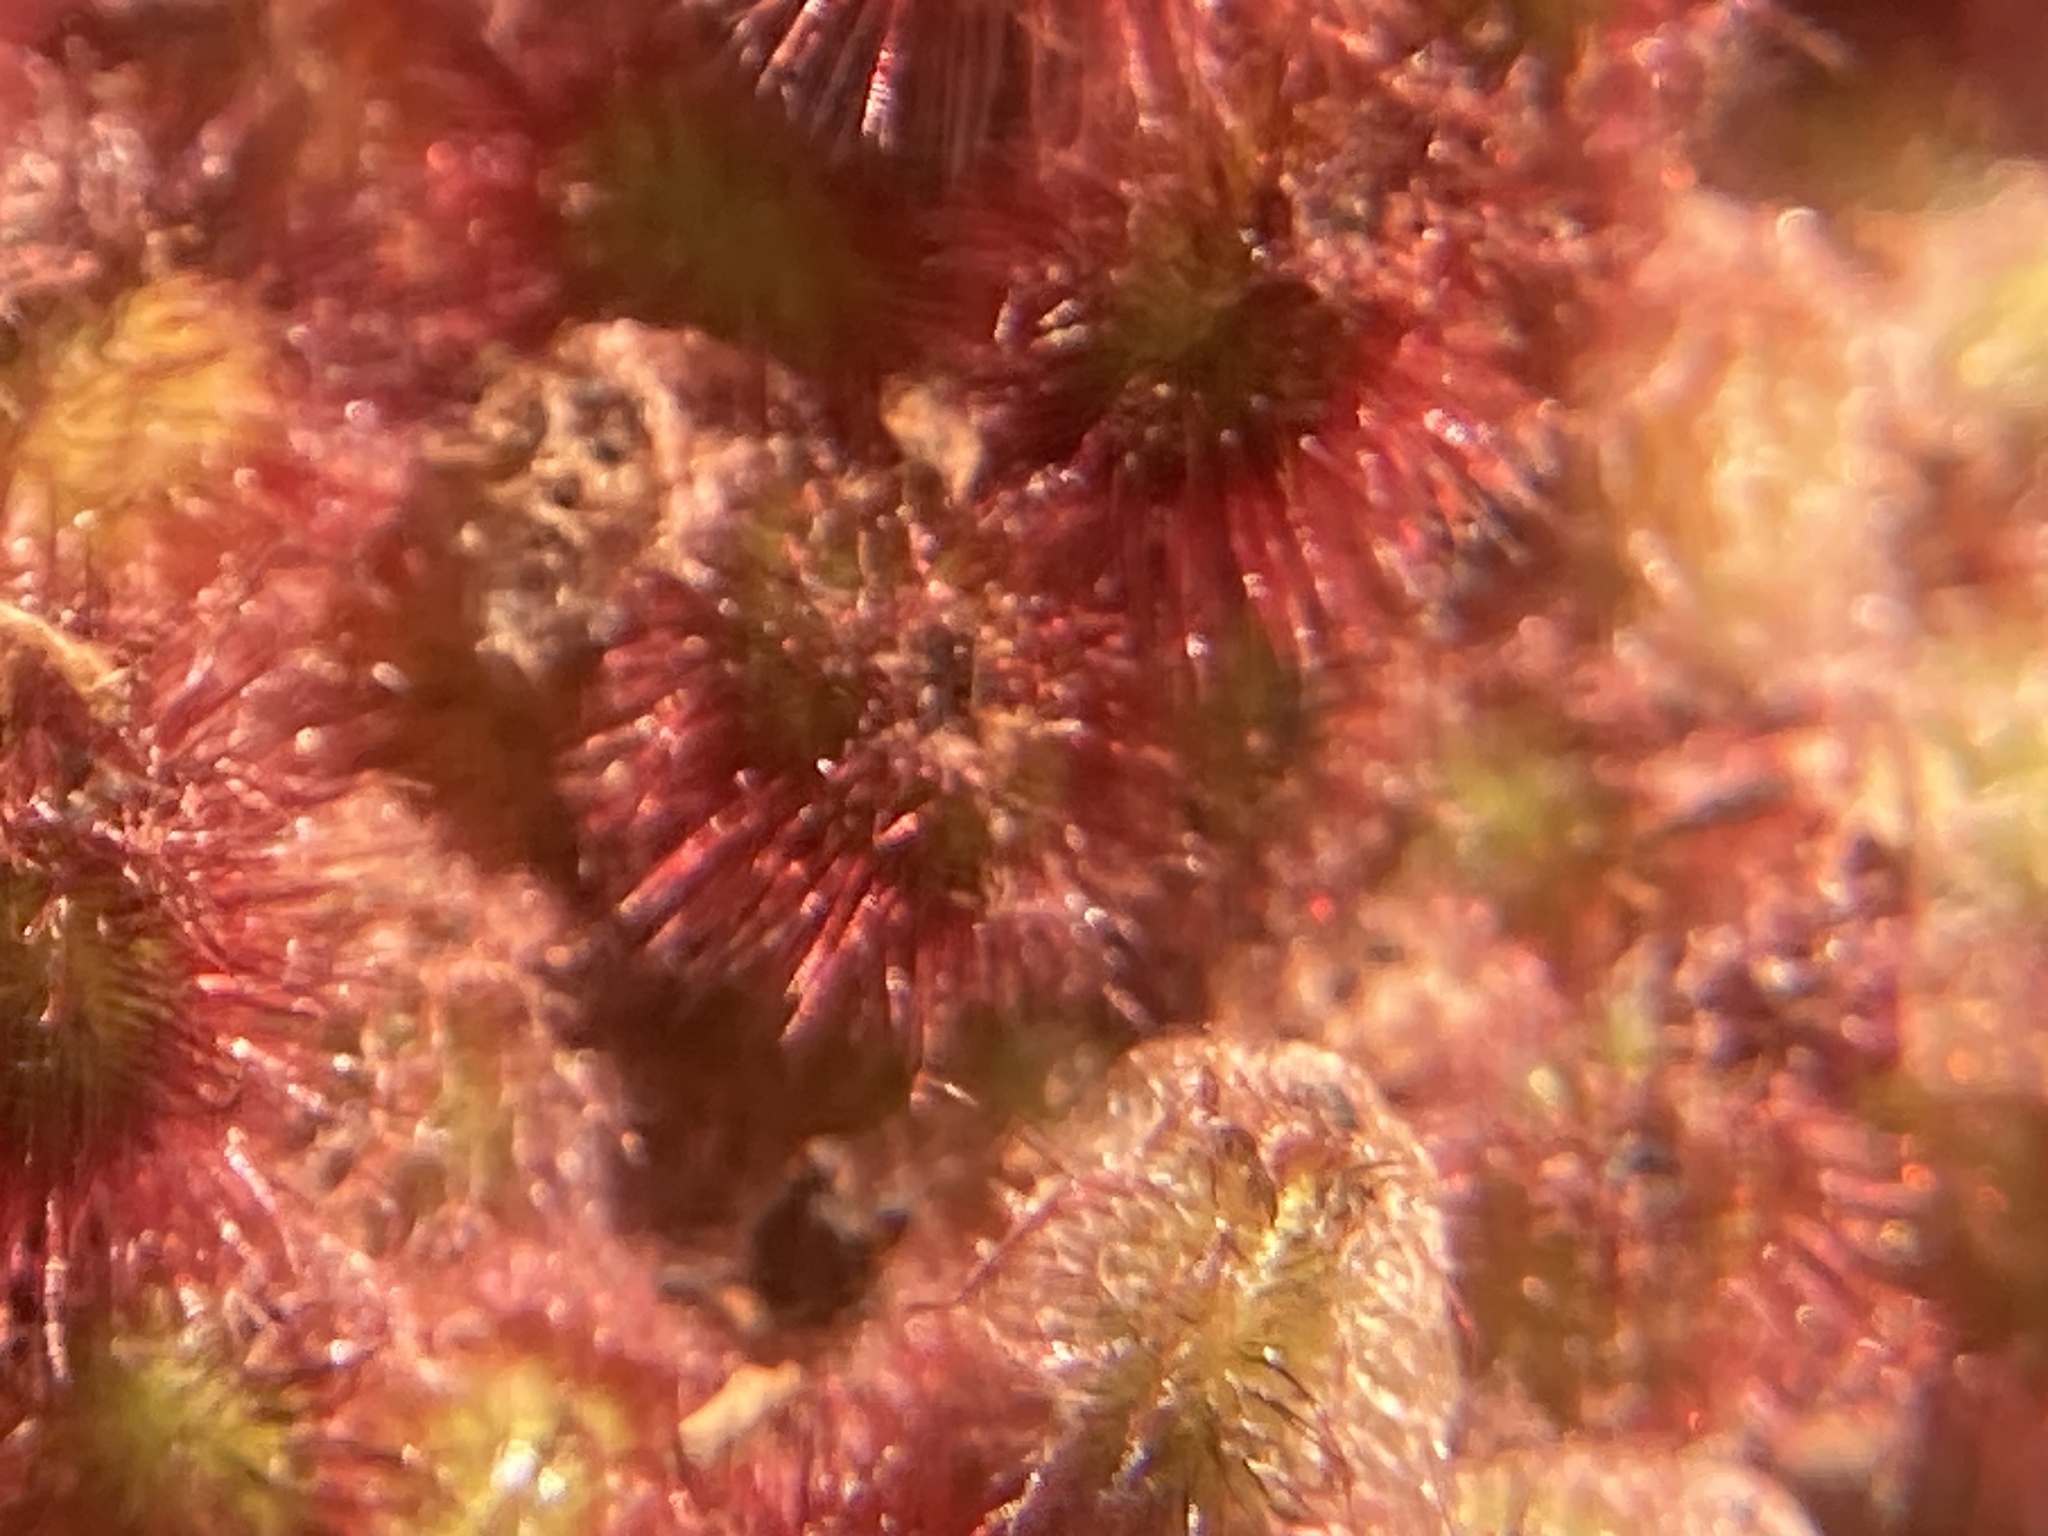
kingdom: Plantae
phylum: Tracheophyta
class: Magnoliopsida
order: Sapindales
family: Anacardiaceae
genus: Rhus
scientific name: Rhus typhina
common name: Staghorn sumac
